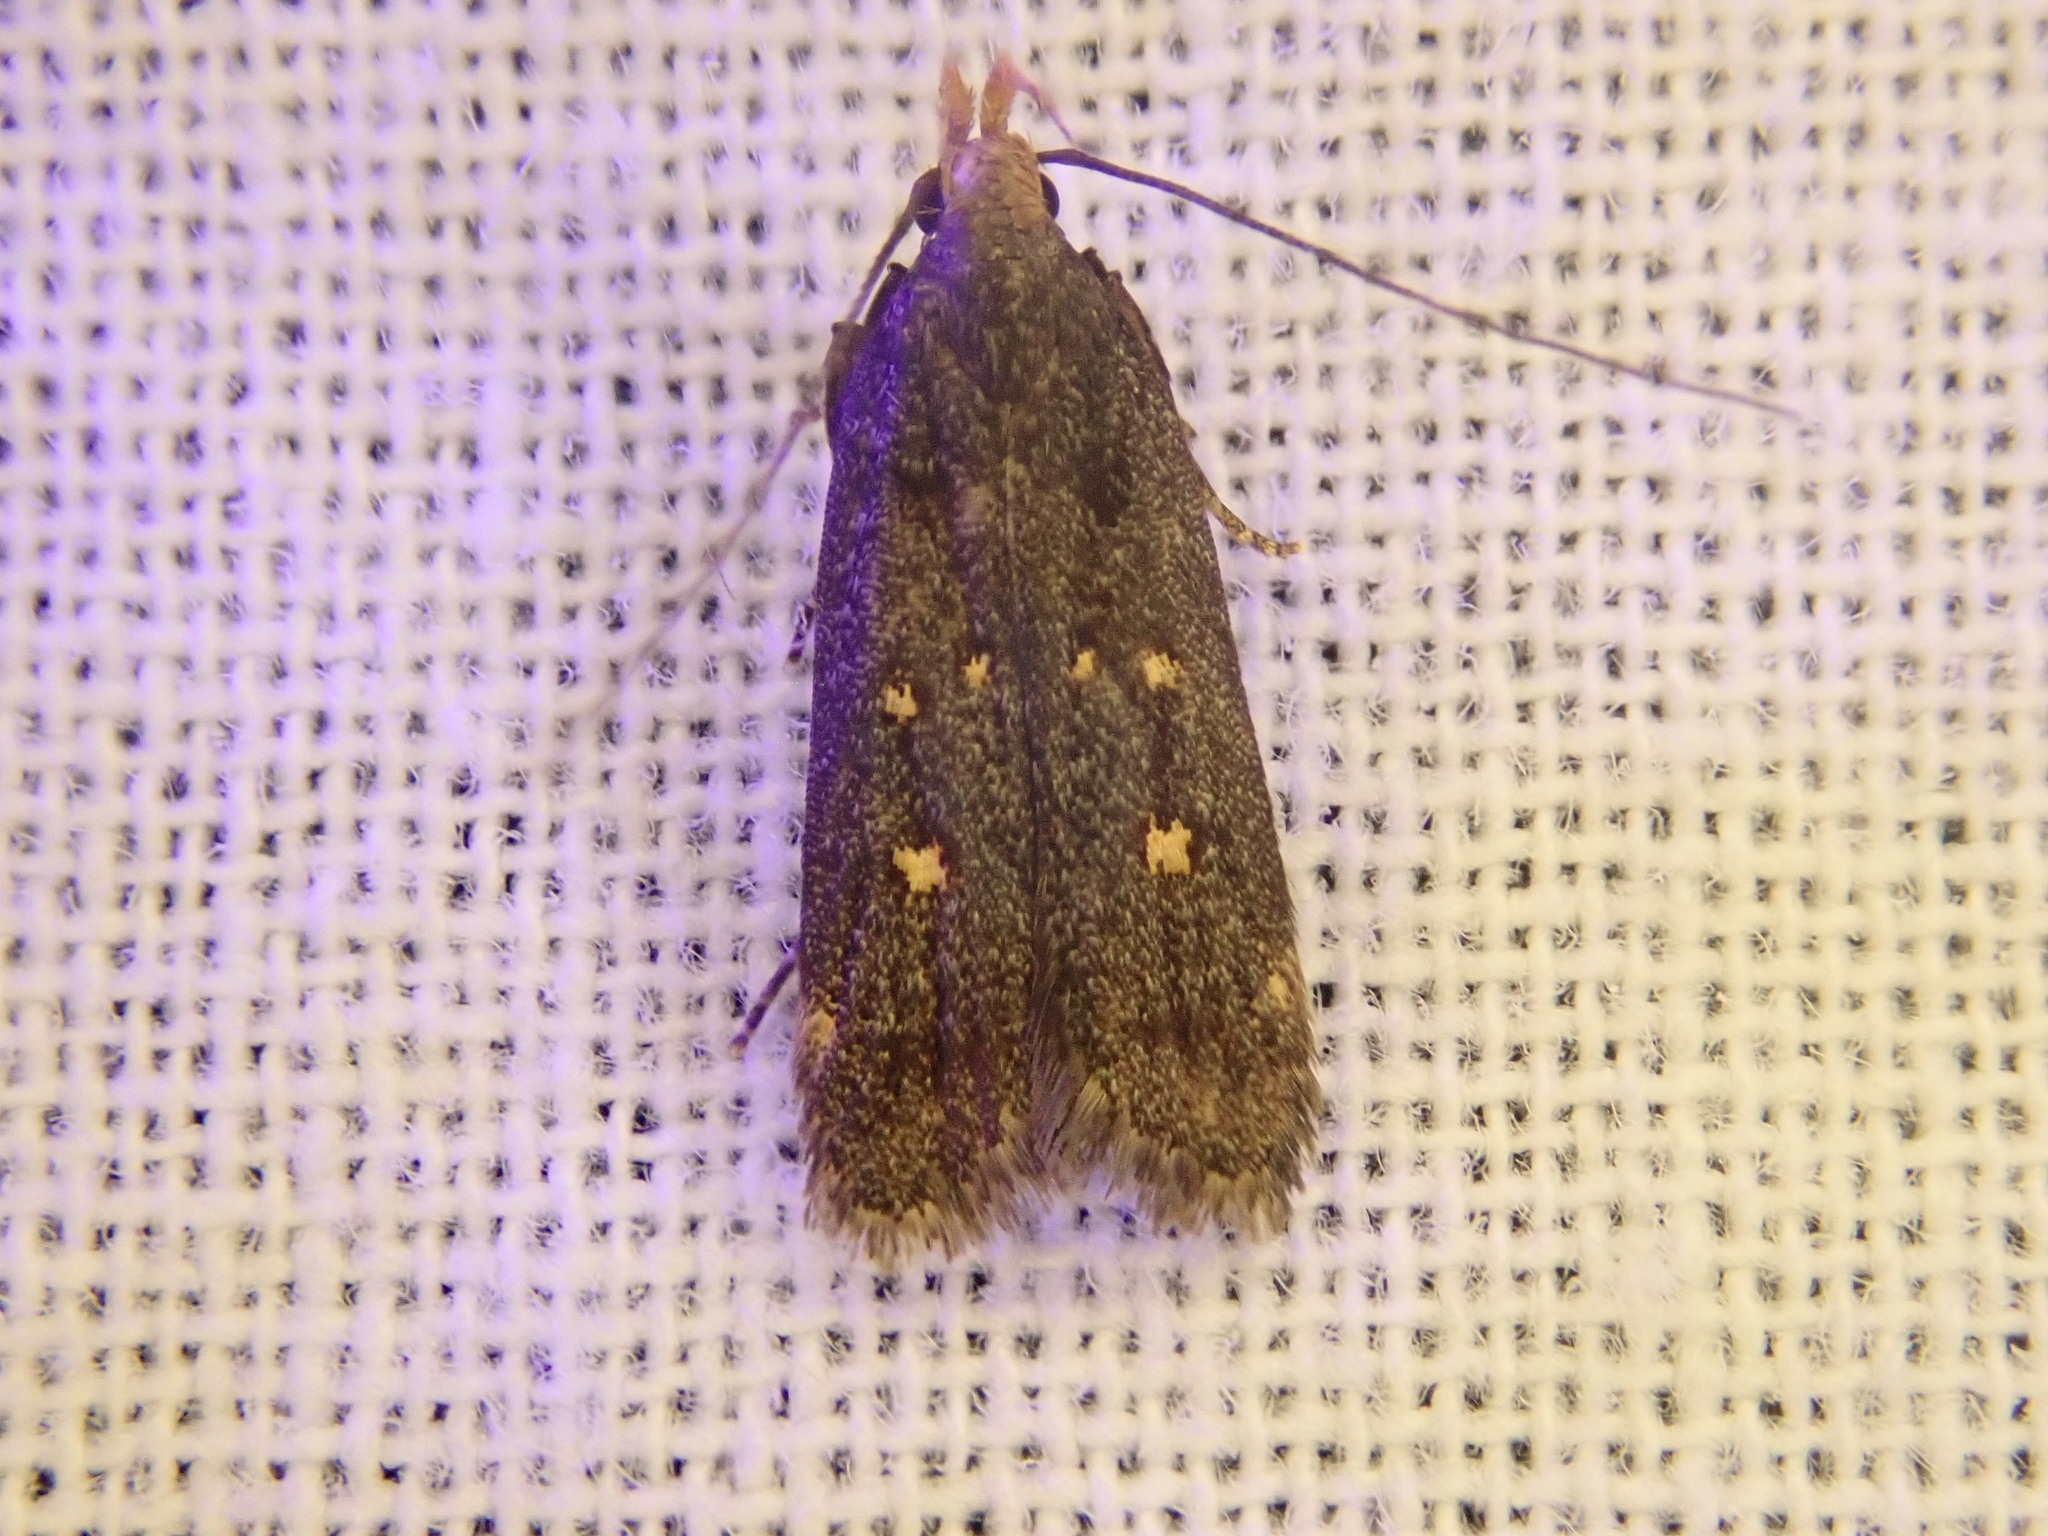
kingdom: Animalia
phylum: Arthropoda
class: Insecta
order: Lepidoptera
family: Gelechiidae
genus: Dichomeris
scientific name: Dichomeris agonia
